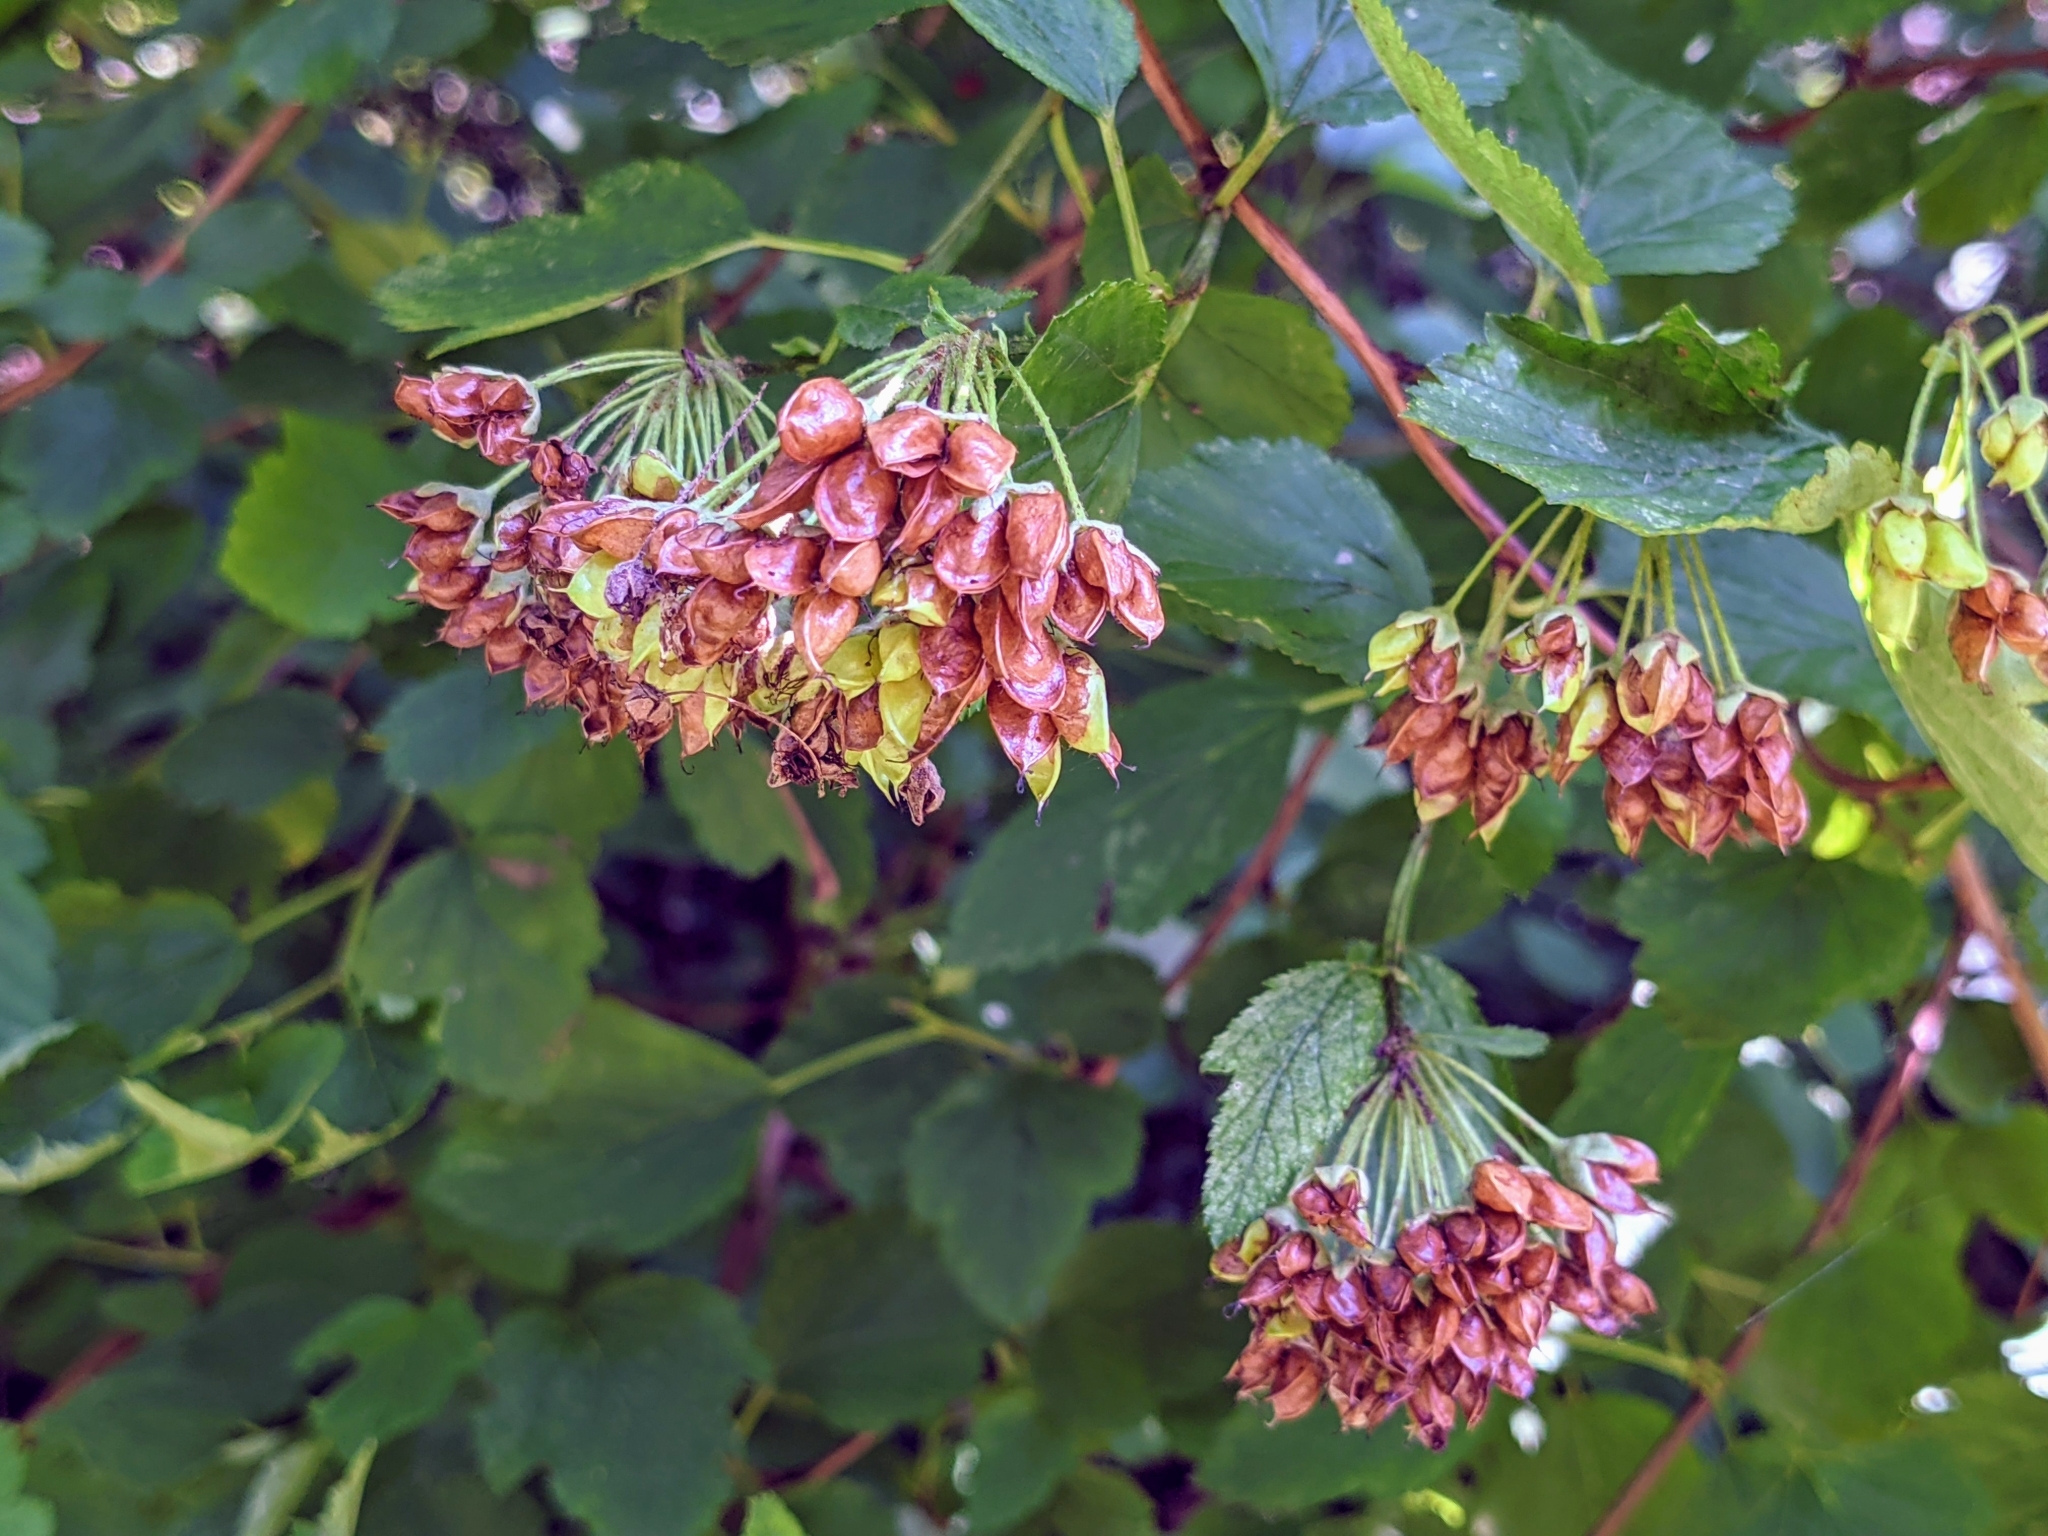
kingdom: Plantae
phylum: Tracheophyta
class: Magnoliopsida
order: Rosales
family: Rosaceae
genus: Physocarpus
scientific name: Physocarpus opulifolius
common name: Ninebark
